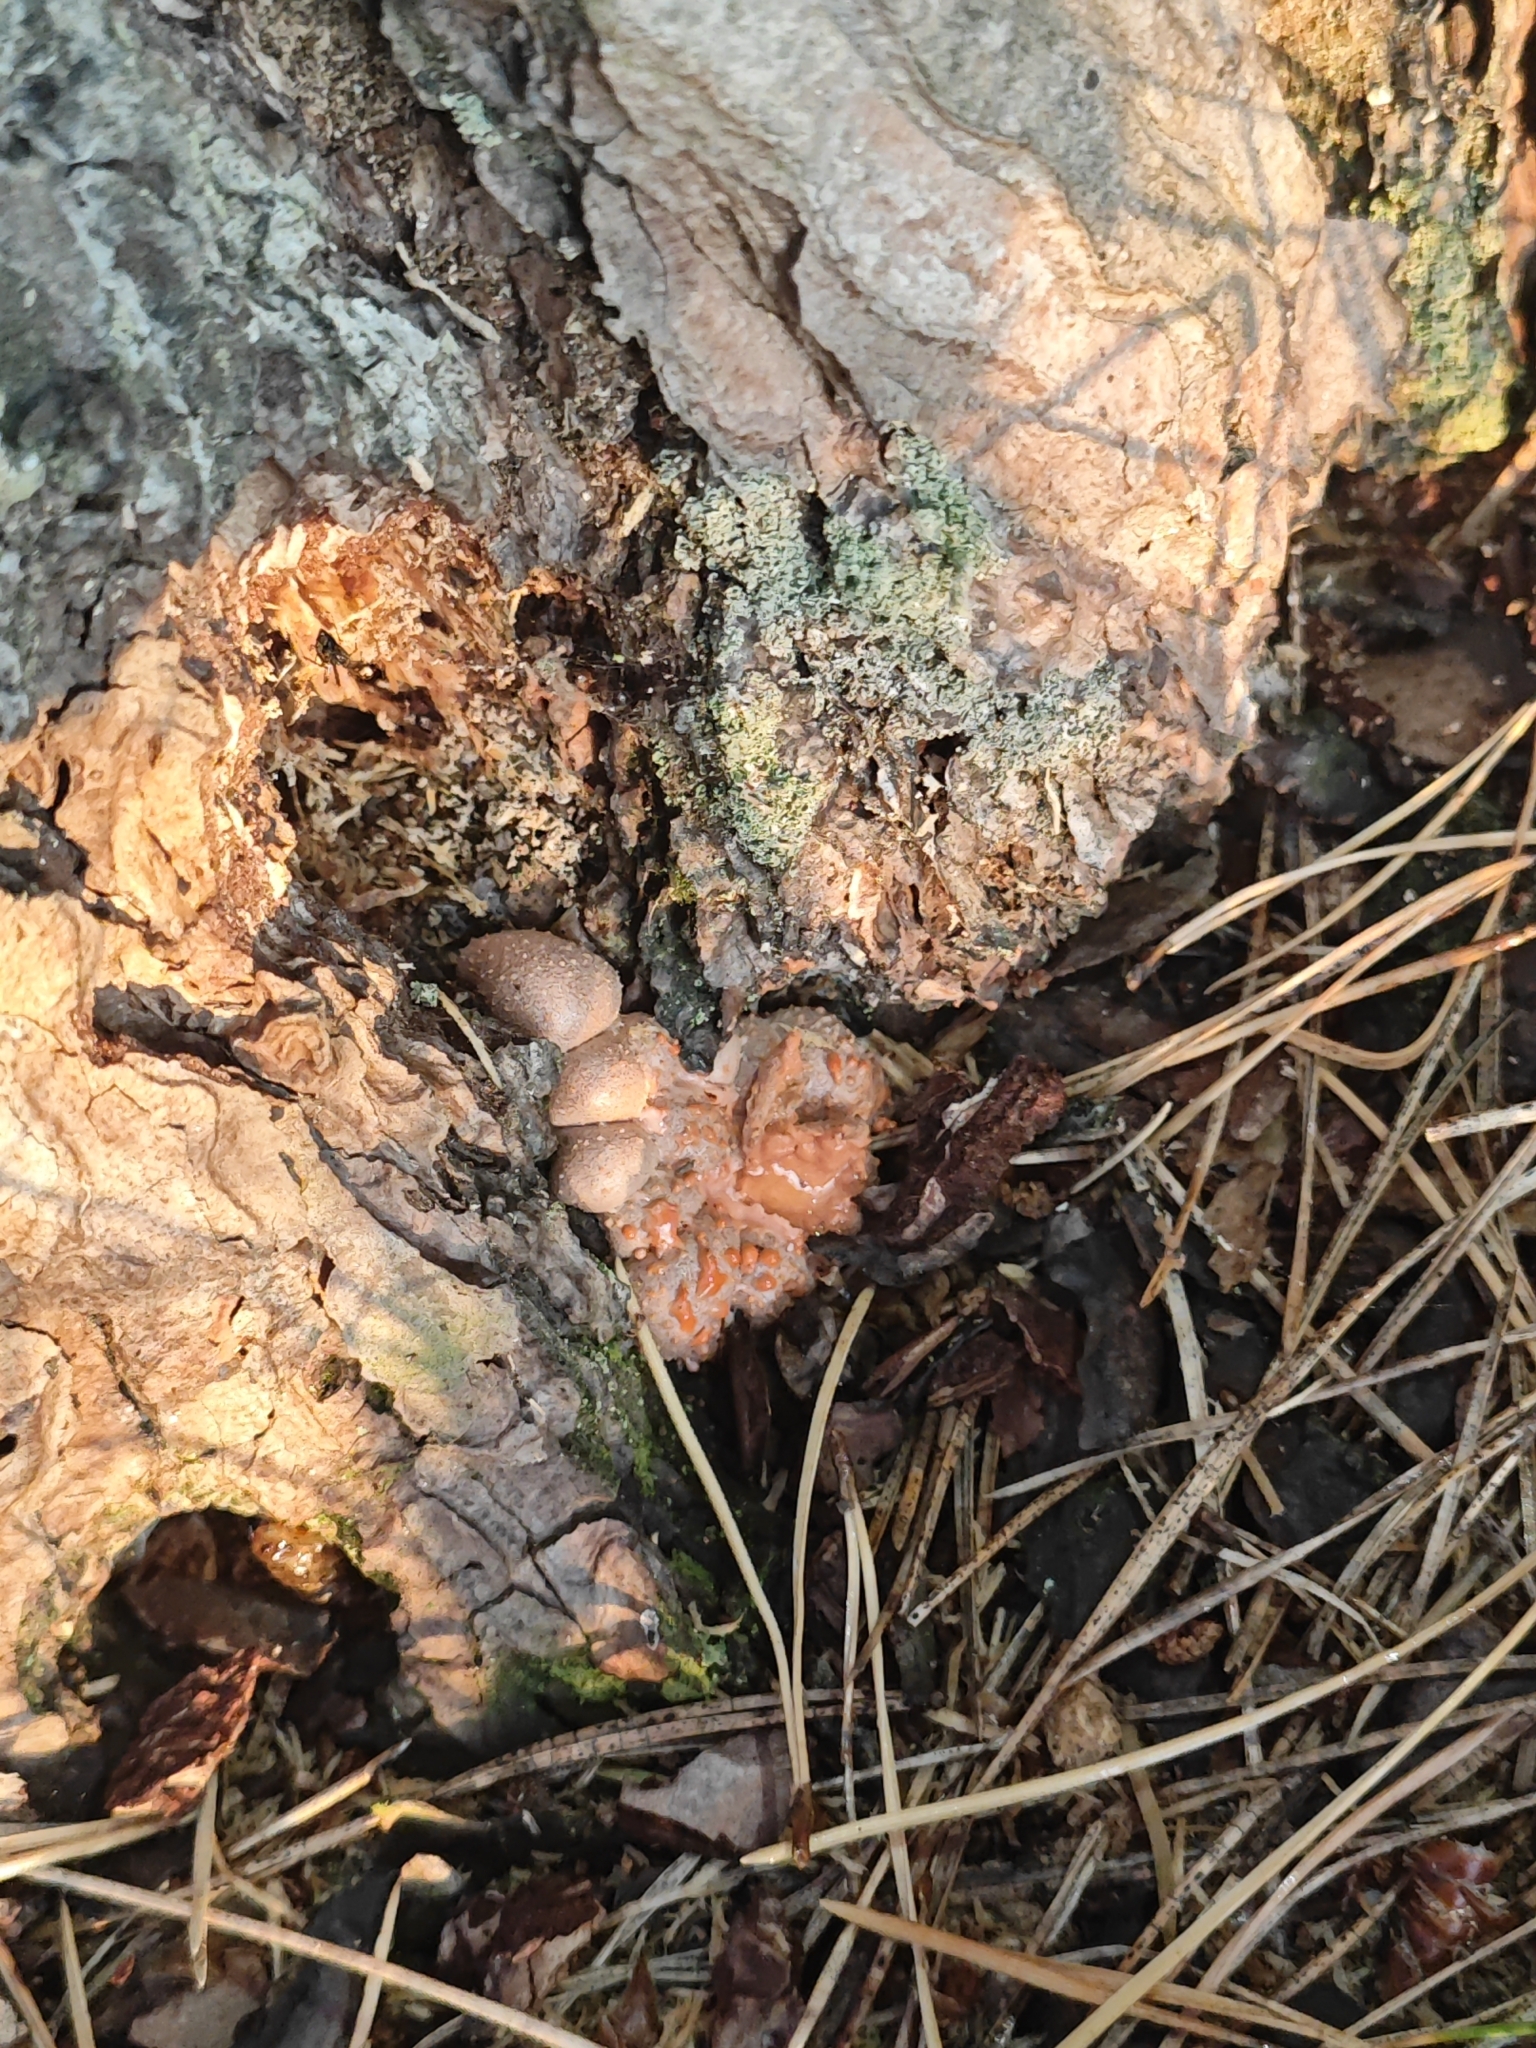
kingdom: Protozoa
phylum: Mycetozoa
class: Myxomycetes
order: Cribrariales
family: Tubiferaceae
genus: Lycogala
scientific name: Lycogala epidendrum
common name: Wolf's milk
